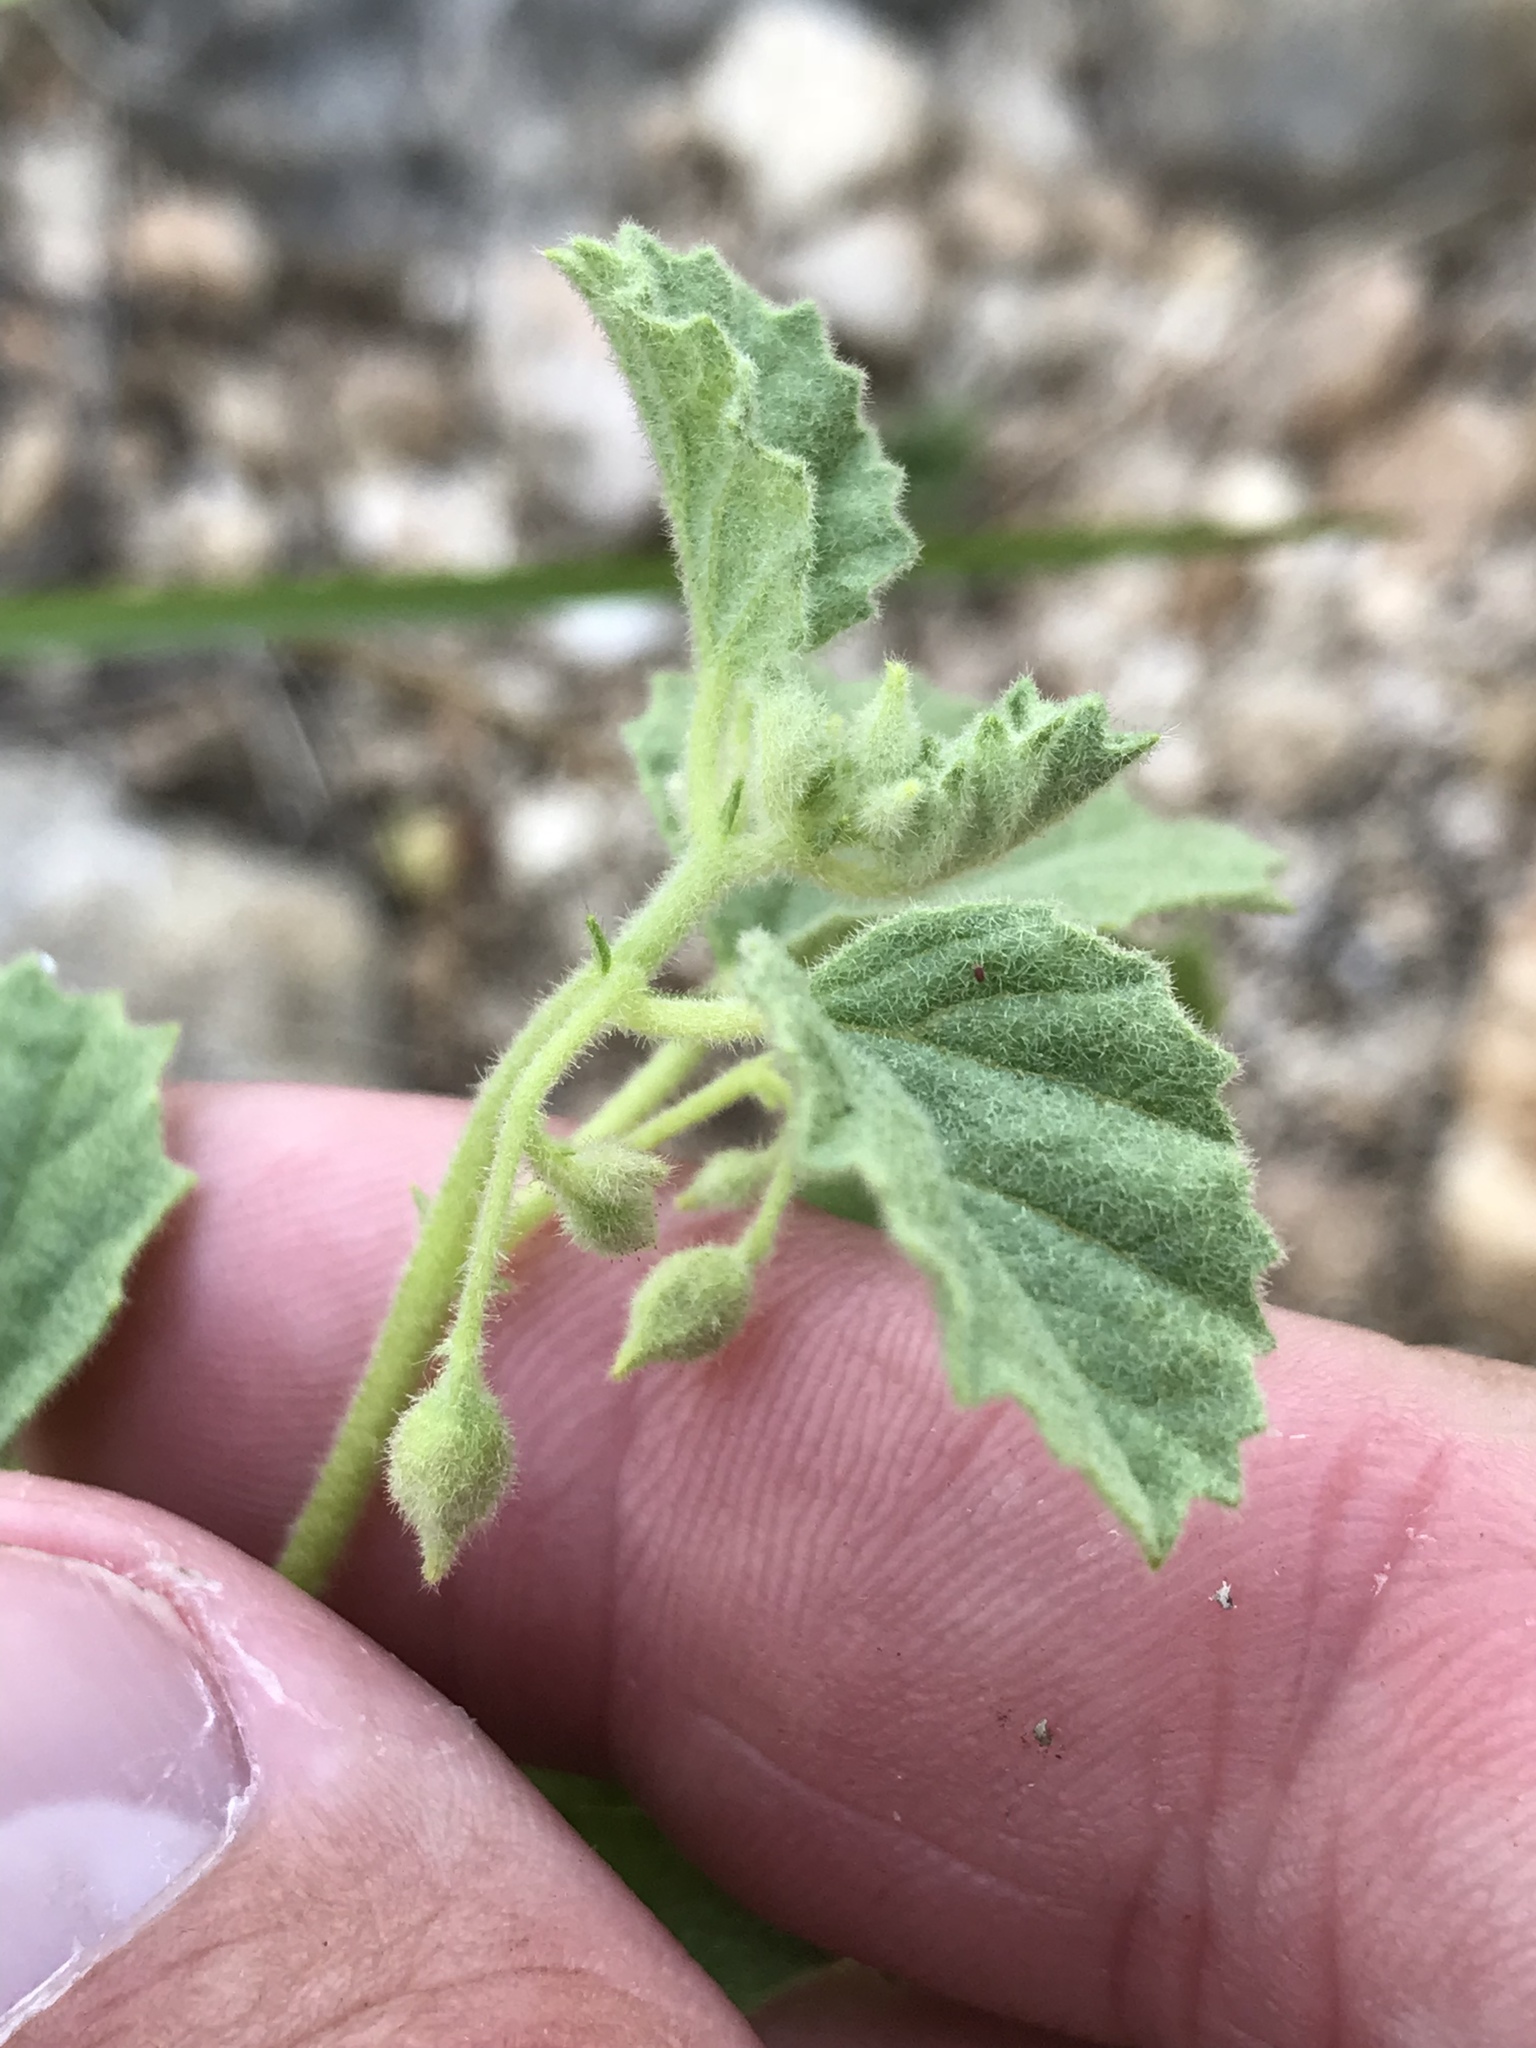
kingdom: Plantae
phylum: Tracheophyta
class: Magnoliopsida
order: Malvales
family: Malvaceae
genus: Rhynchosida
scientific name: Rhynchosida physocalyx
